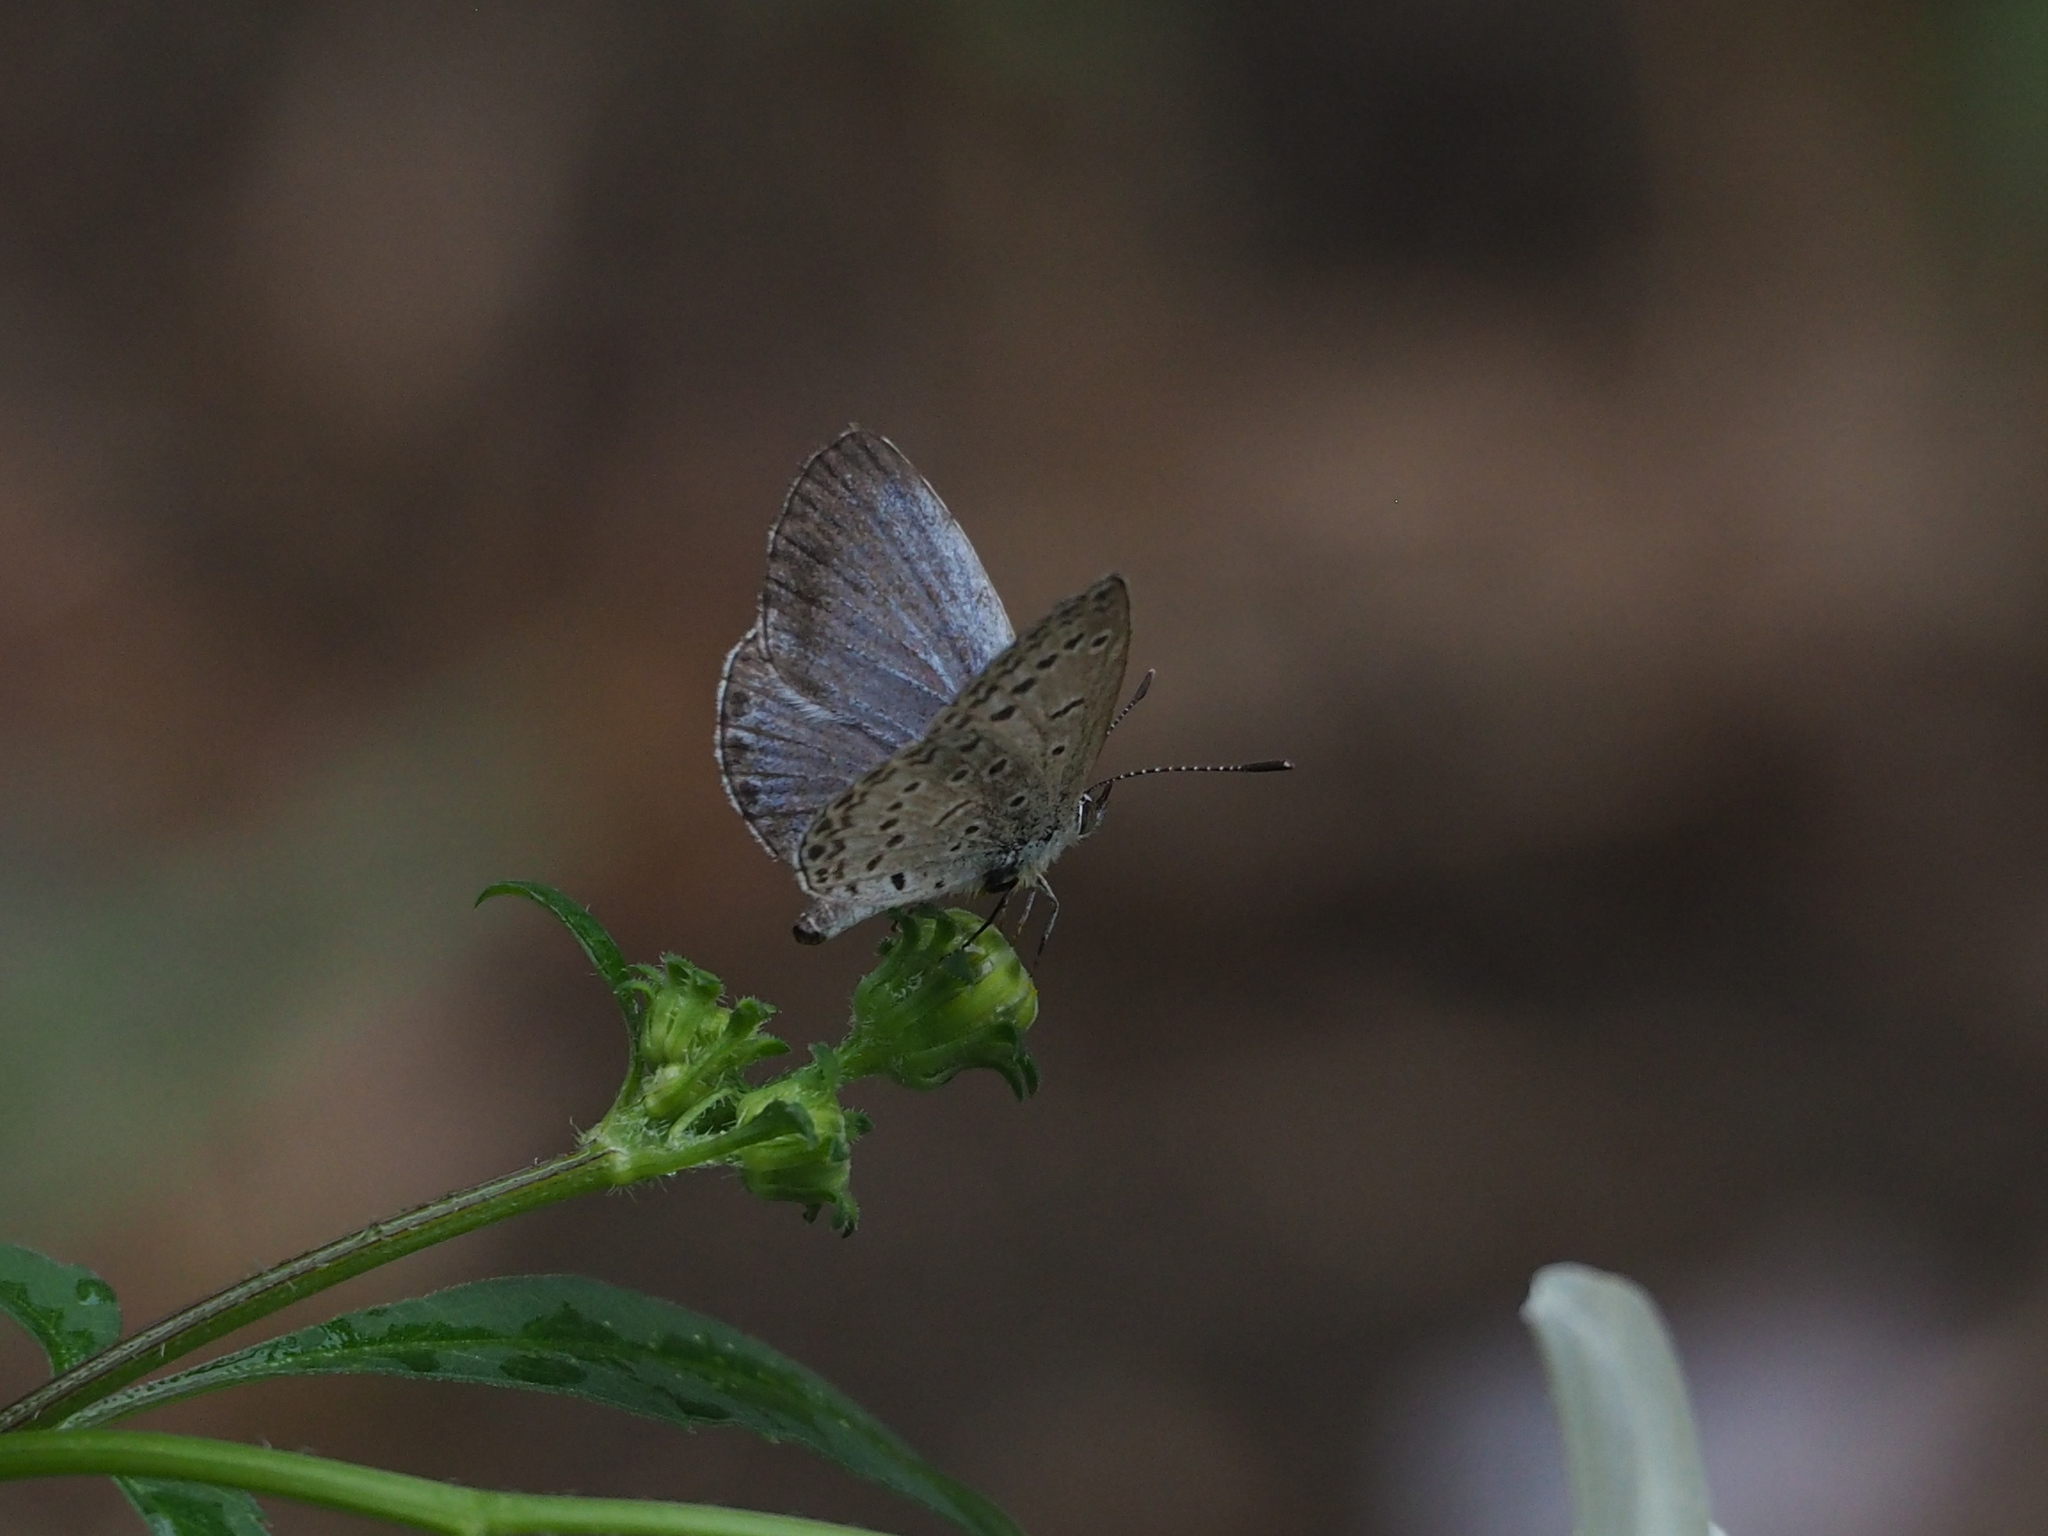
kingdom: Animalia
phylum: Arthropoda
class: Insecta
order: Lepidoptera
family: Lycaenidae
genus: Pseudozizeeria
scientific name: Pseudozizeeria maha
